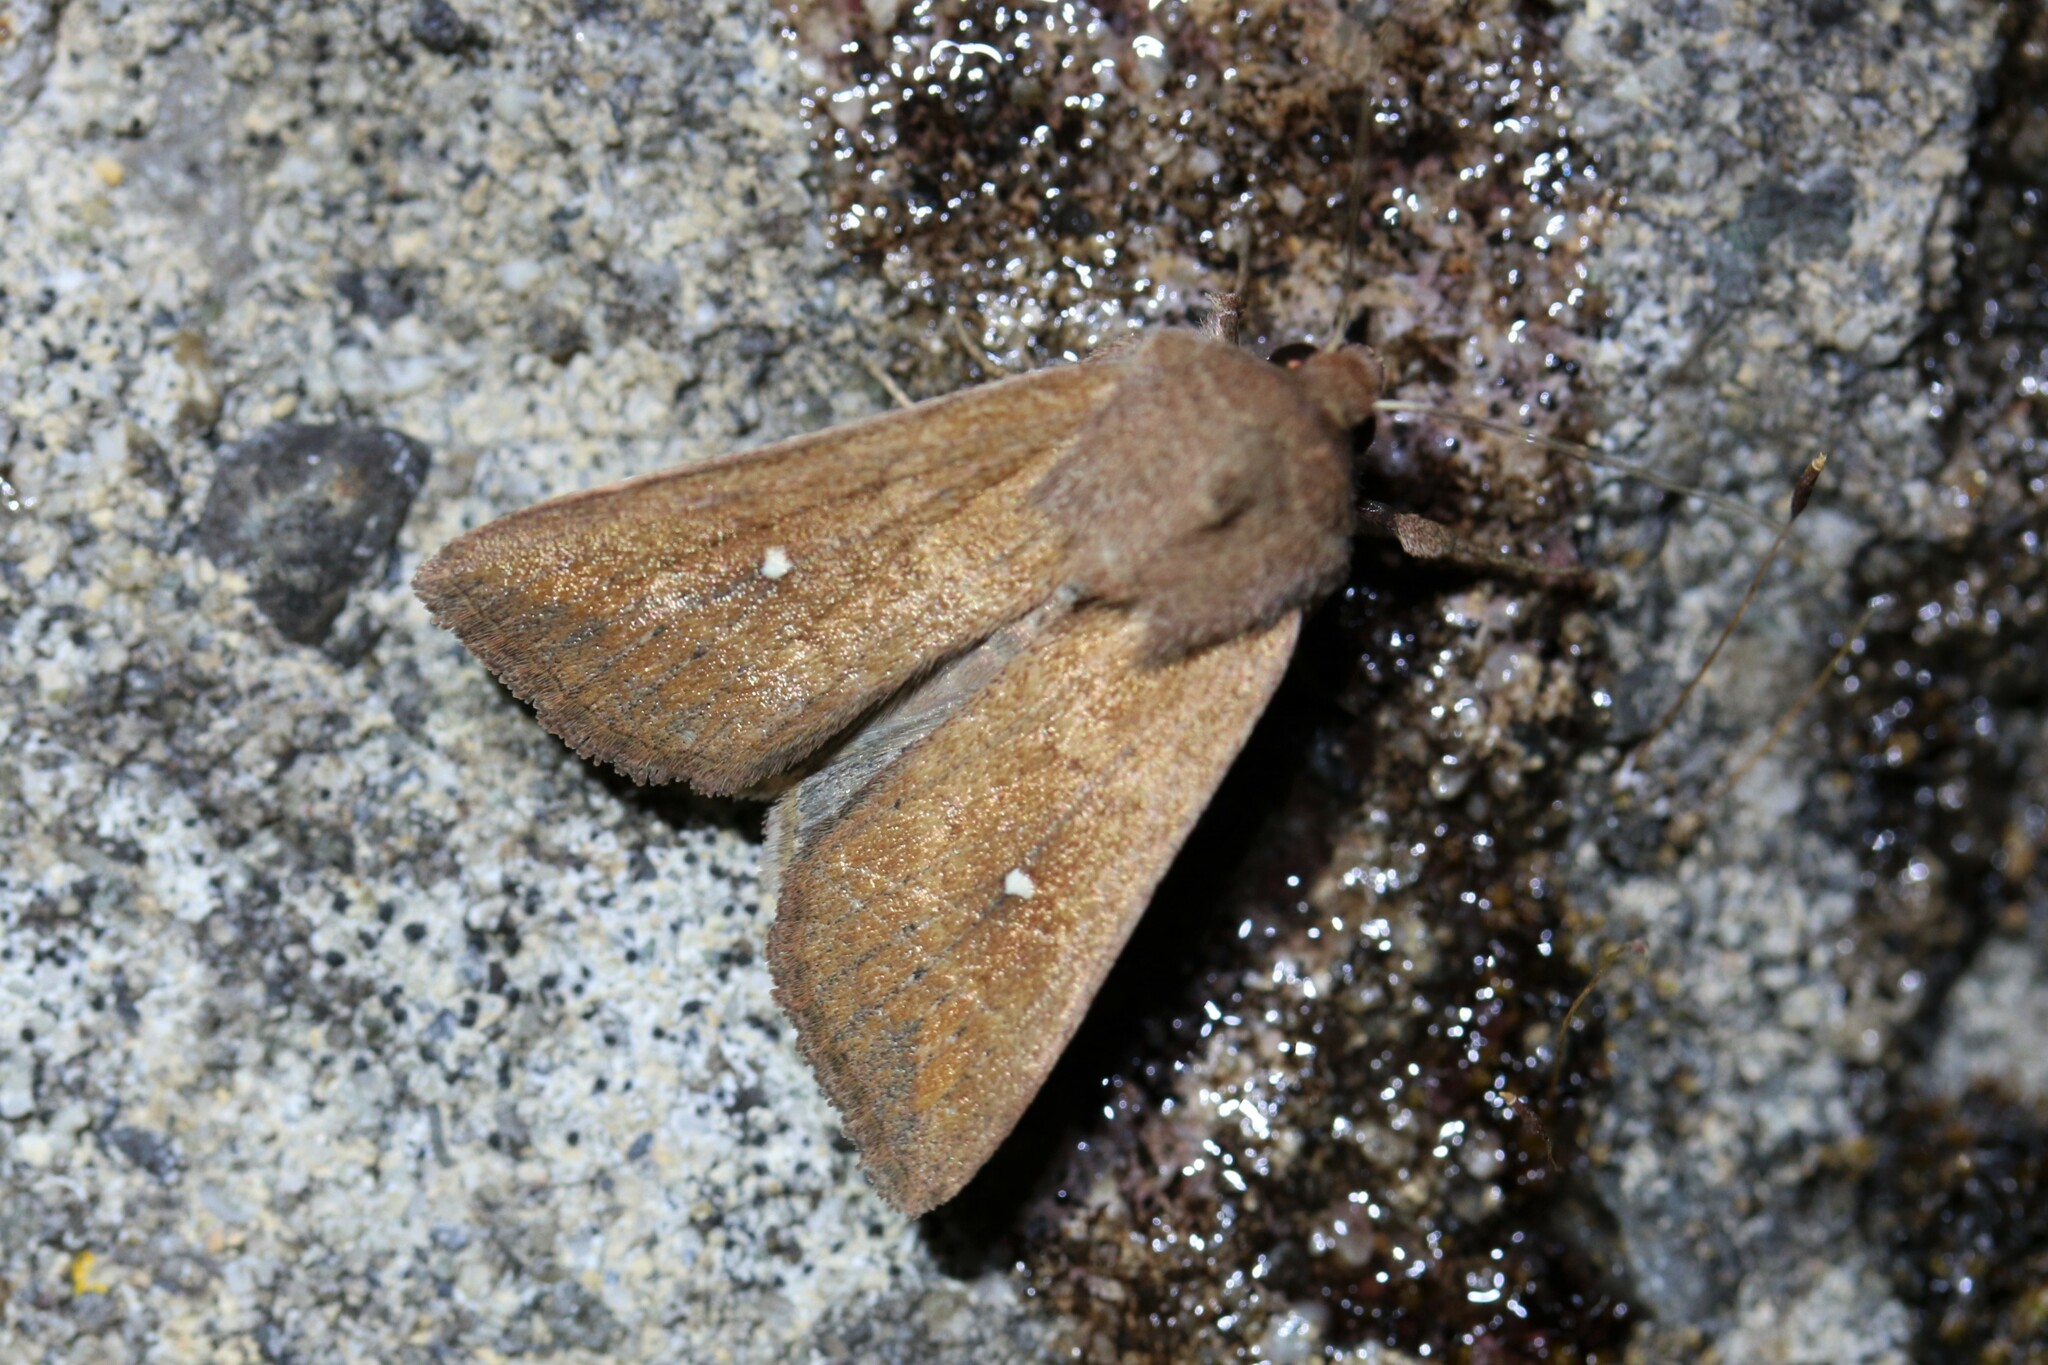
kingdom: Animalia
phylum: Arthropoda
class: Insecta
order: Lepidoptera
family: Noctuidae
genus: Mythimna
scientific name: Mythimna albipuncta
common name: White-point
